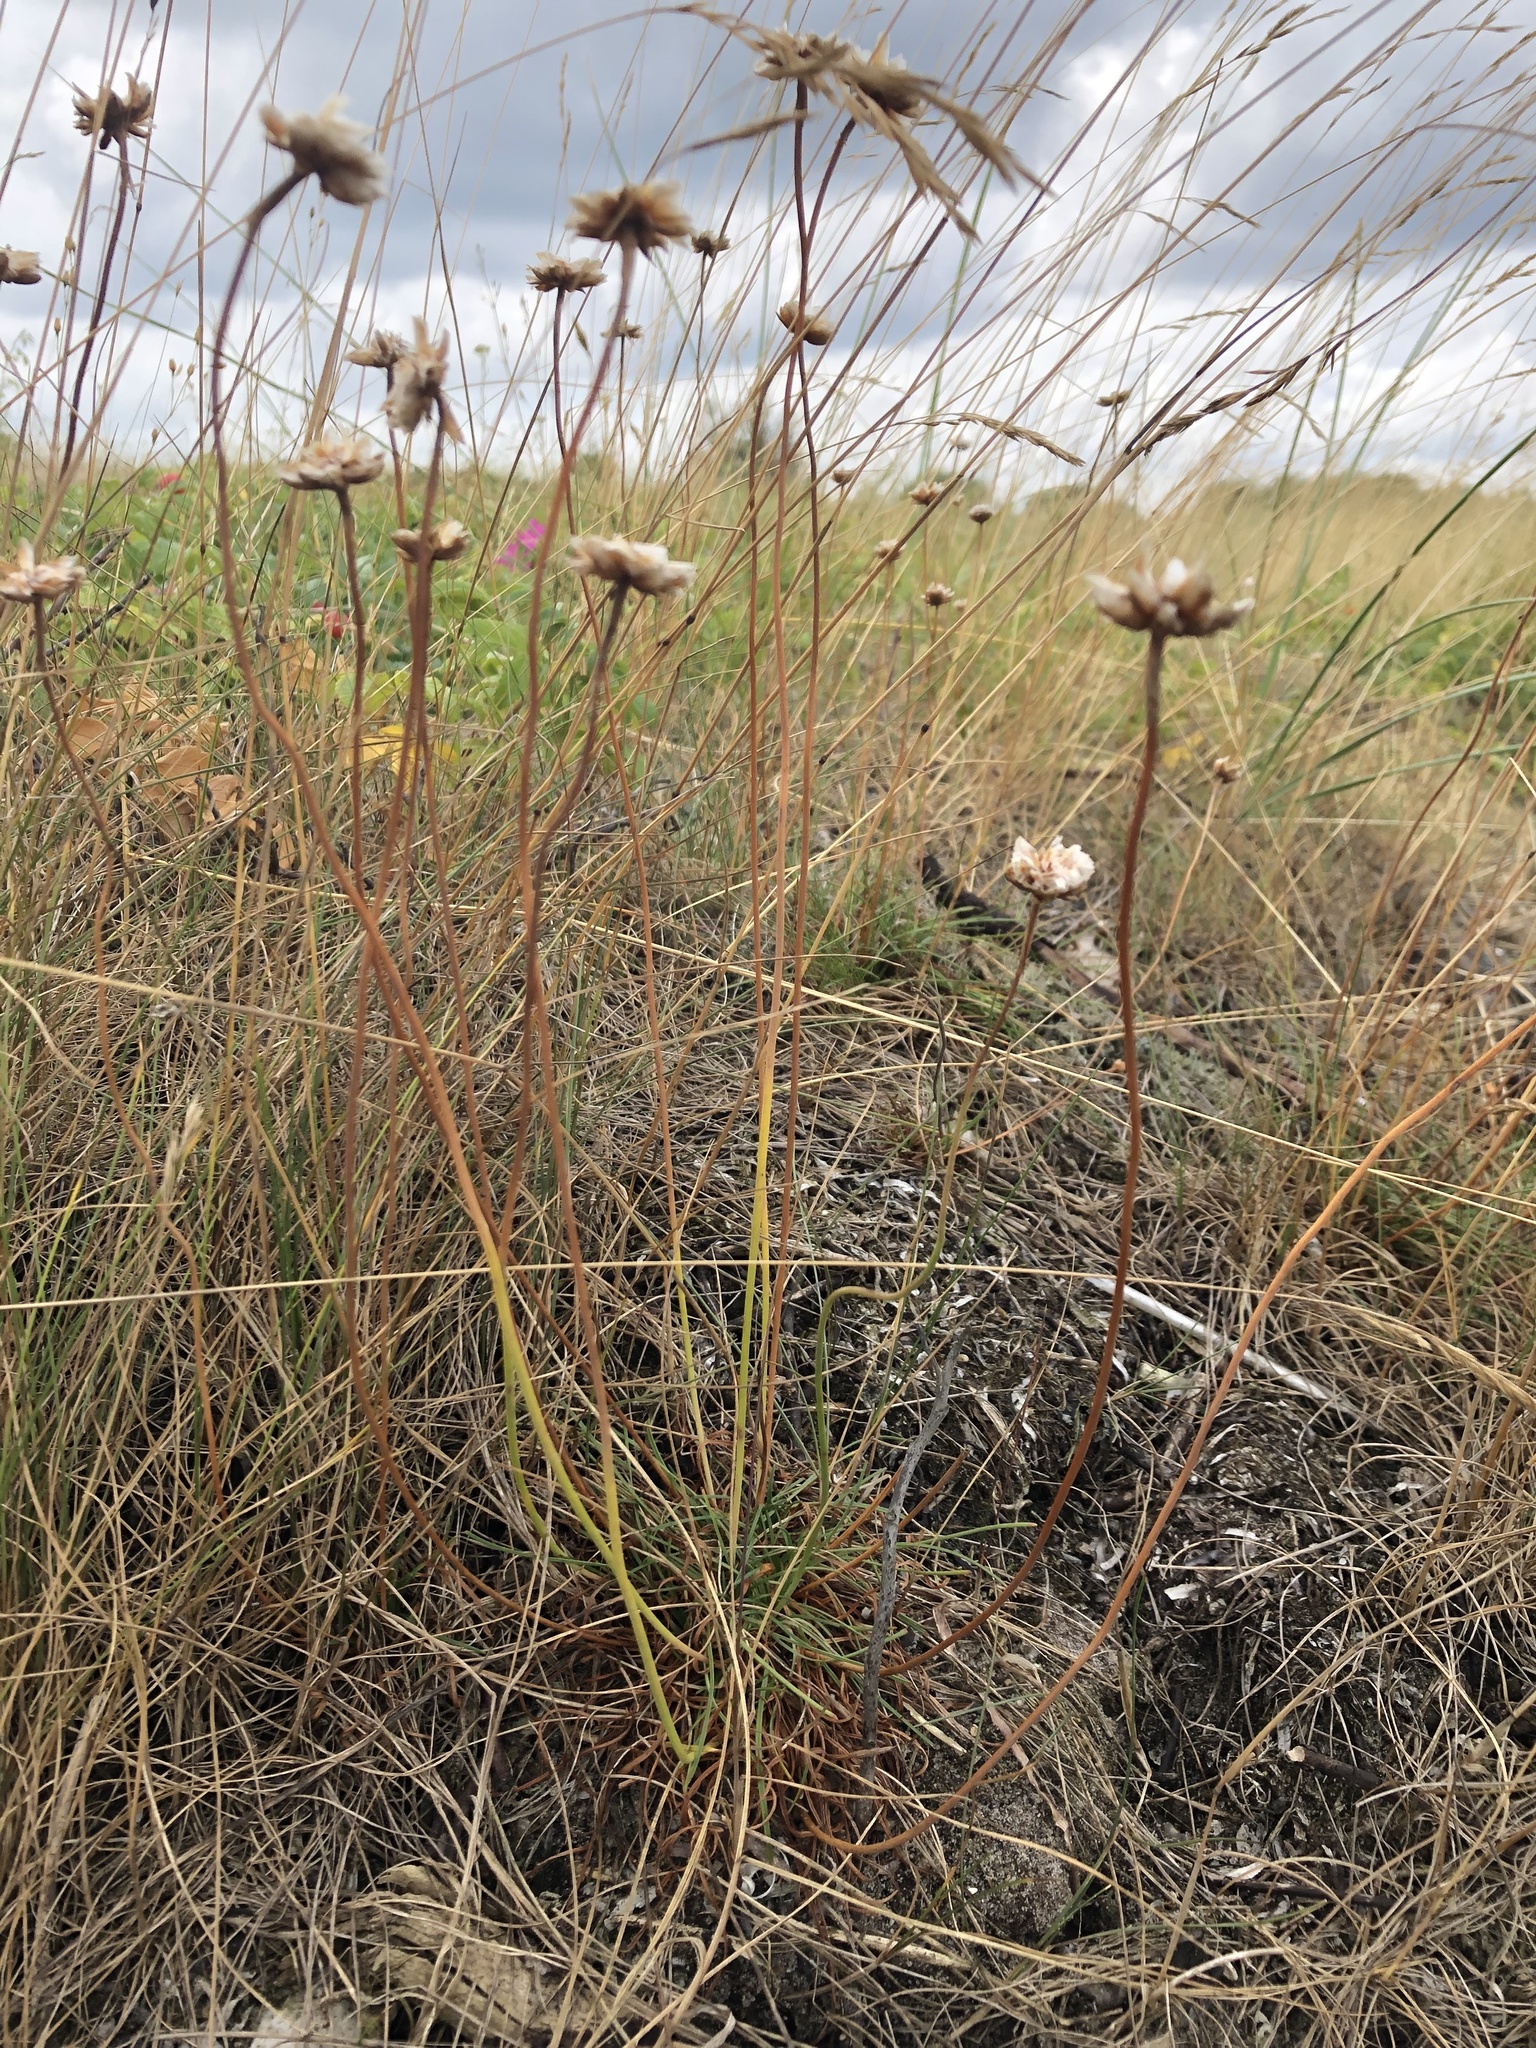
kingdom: Plantae
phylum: Tracheophyta
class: Magnoliopsida
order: Caryophyllales
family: Plumbaginaceae
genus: Armeria
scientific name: Armeria maritima
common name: Thrift
